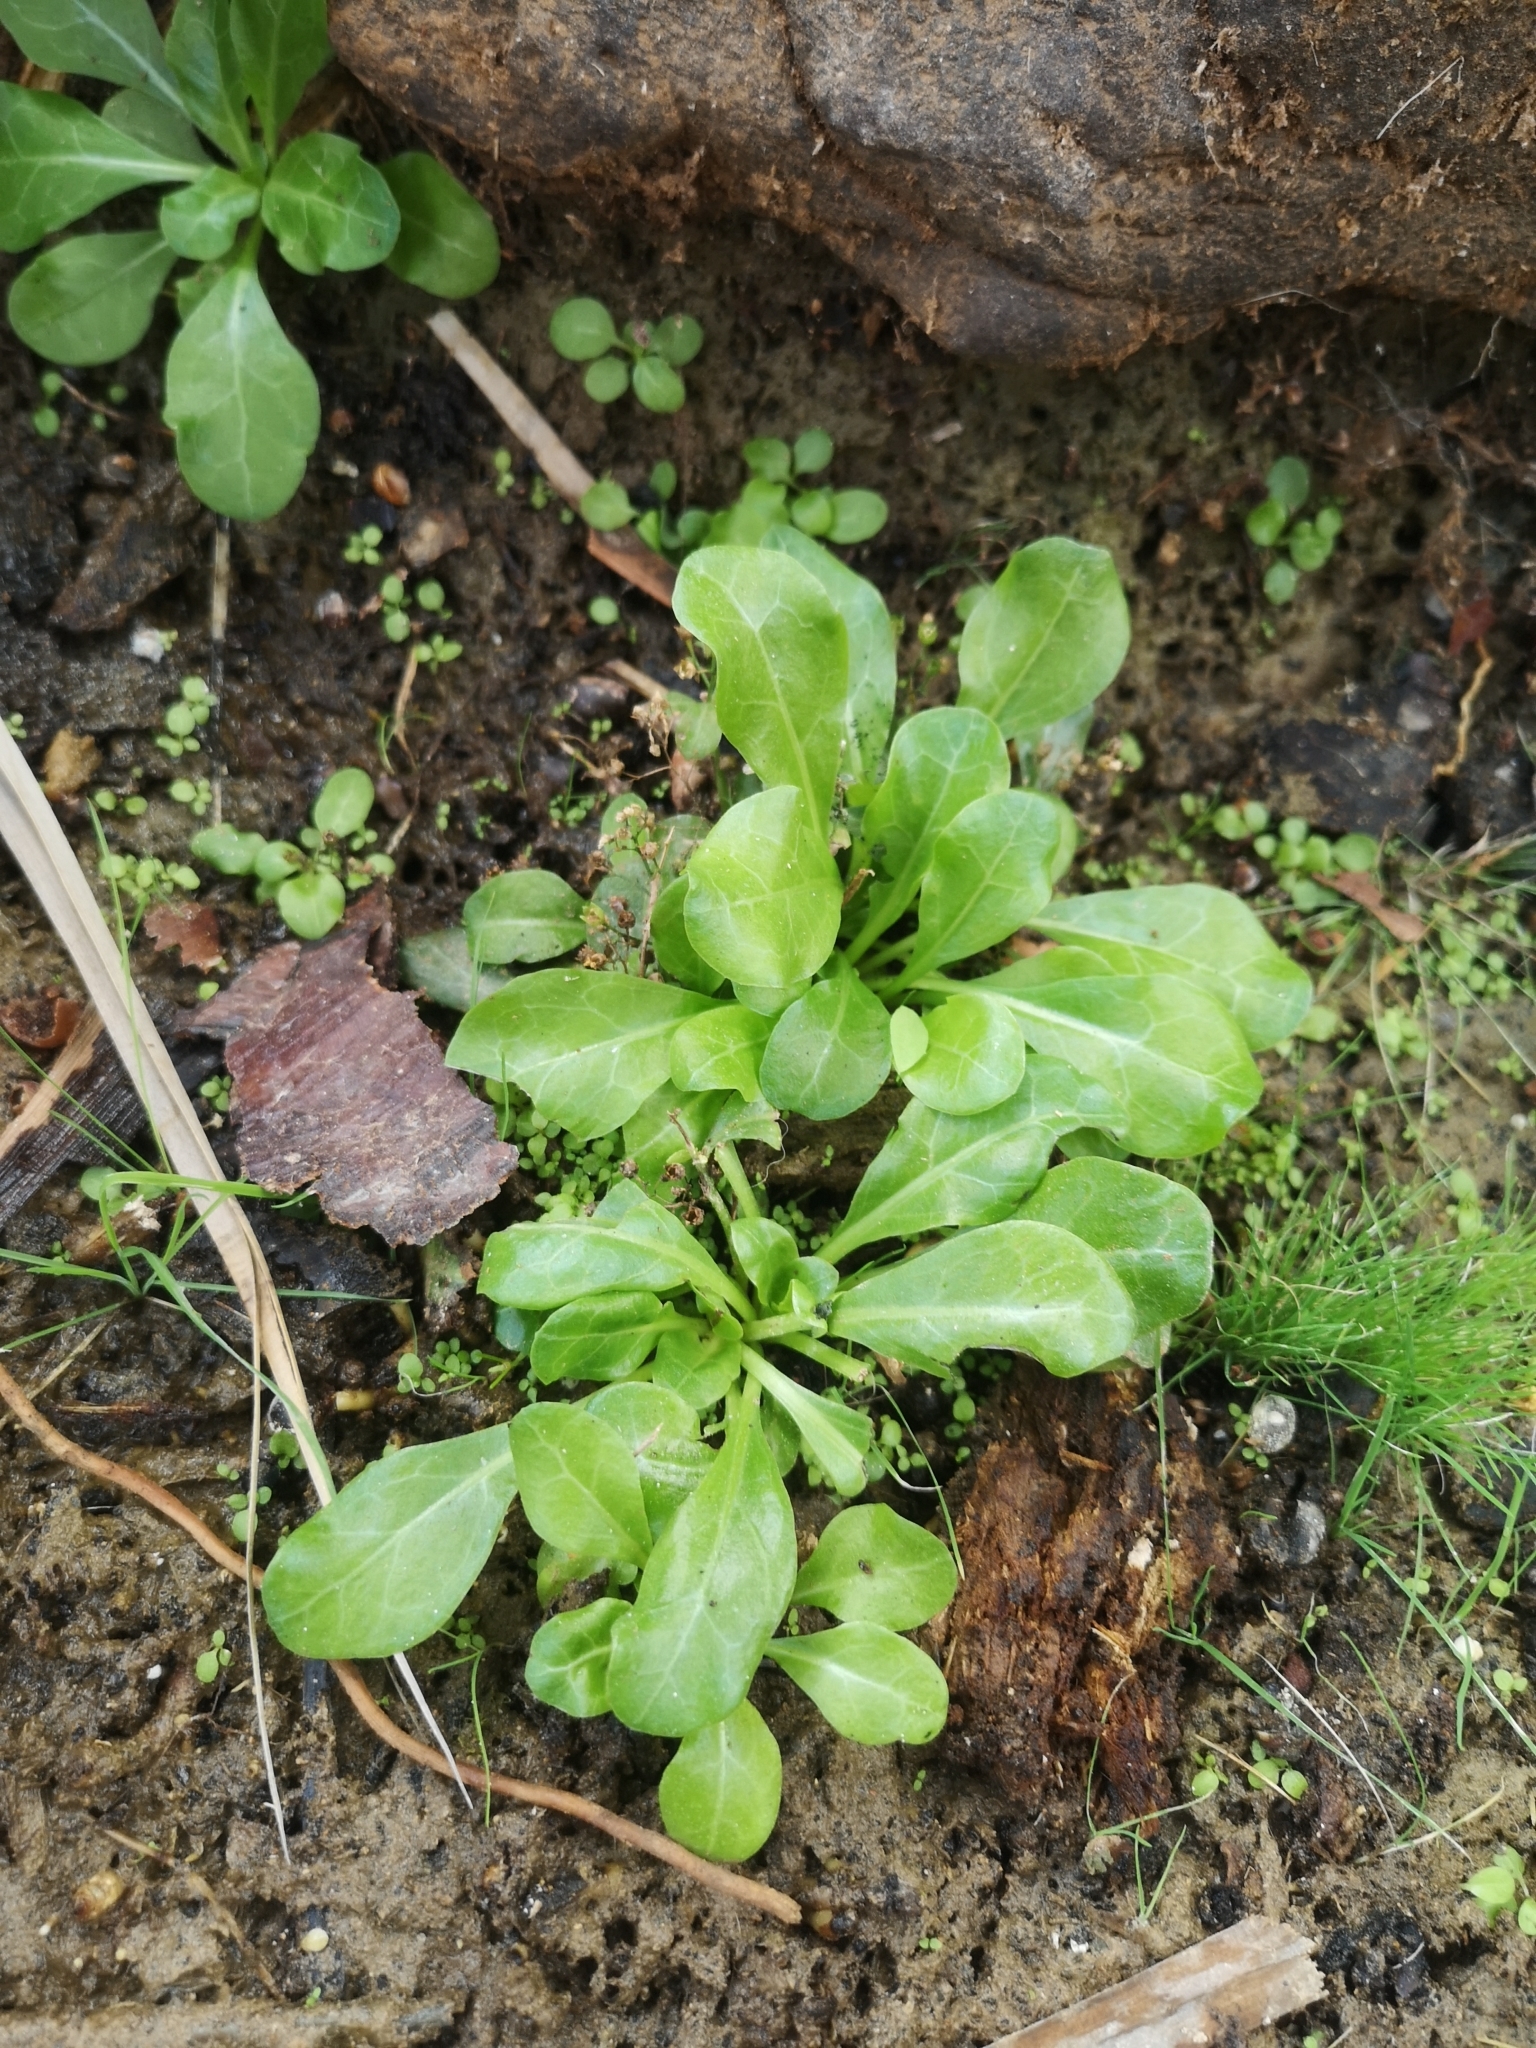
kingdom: Plantae
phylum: Tracheophyta
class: Magnoliopsida
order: Ericales
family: Primulaceae
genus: Samolus
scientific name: Samolus valerandi
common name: Brookweed
